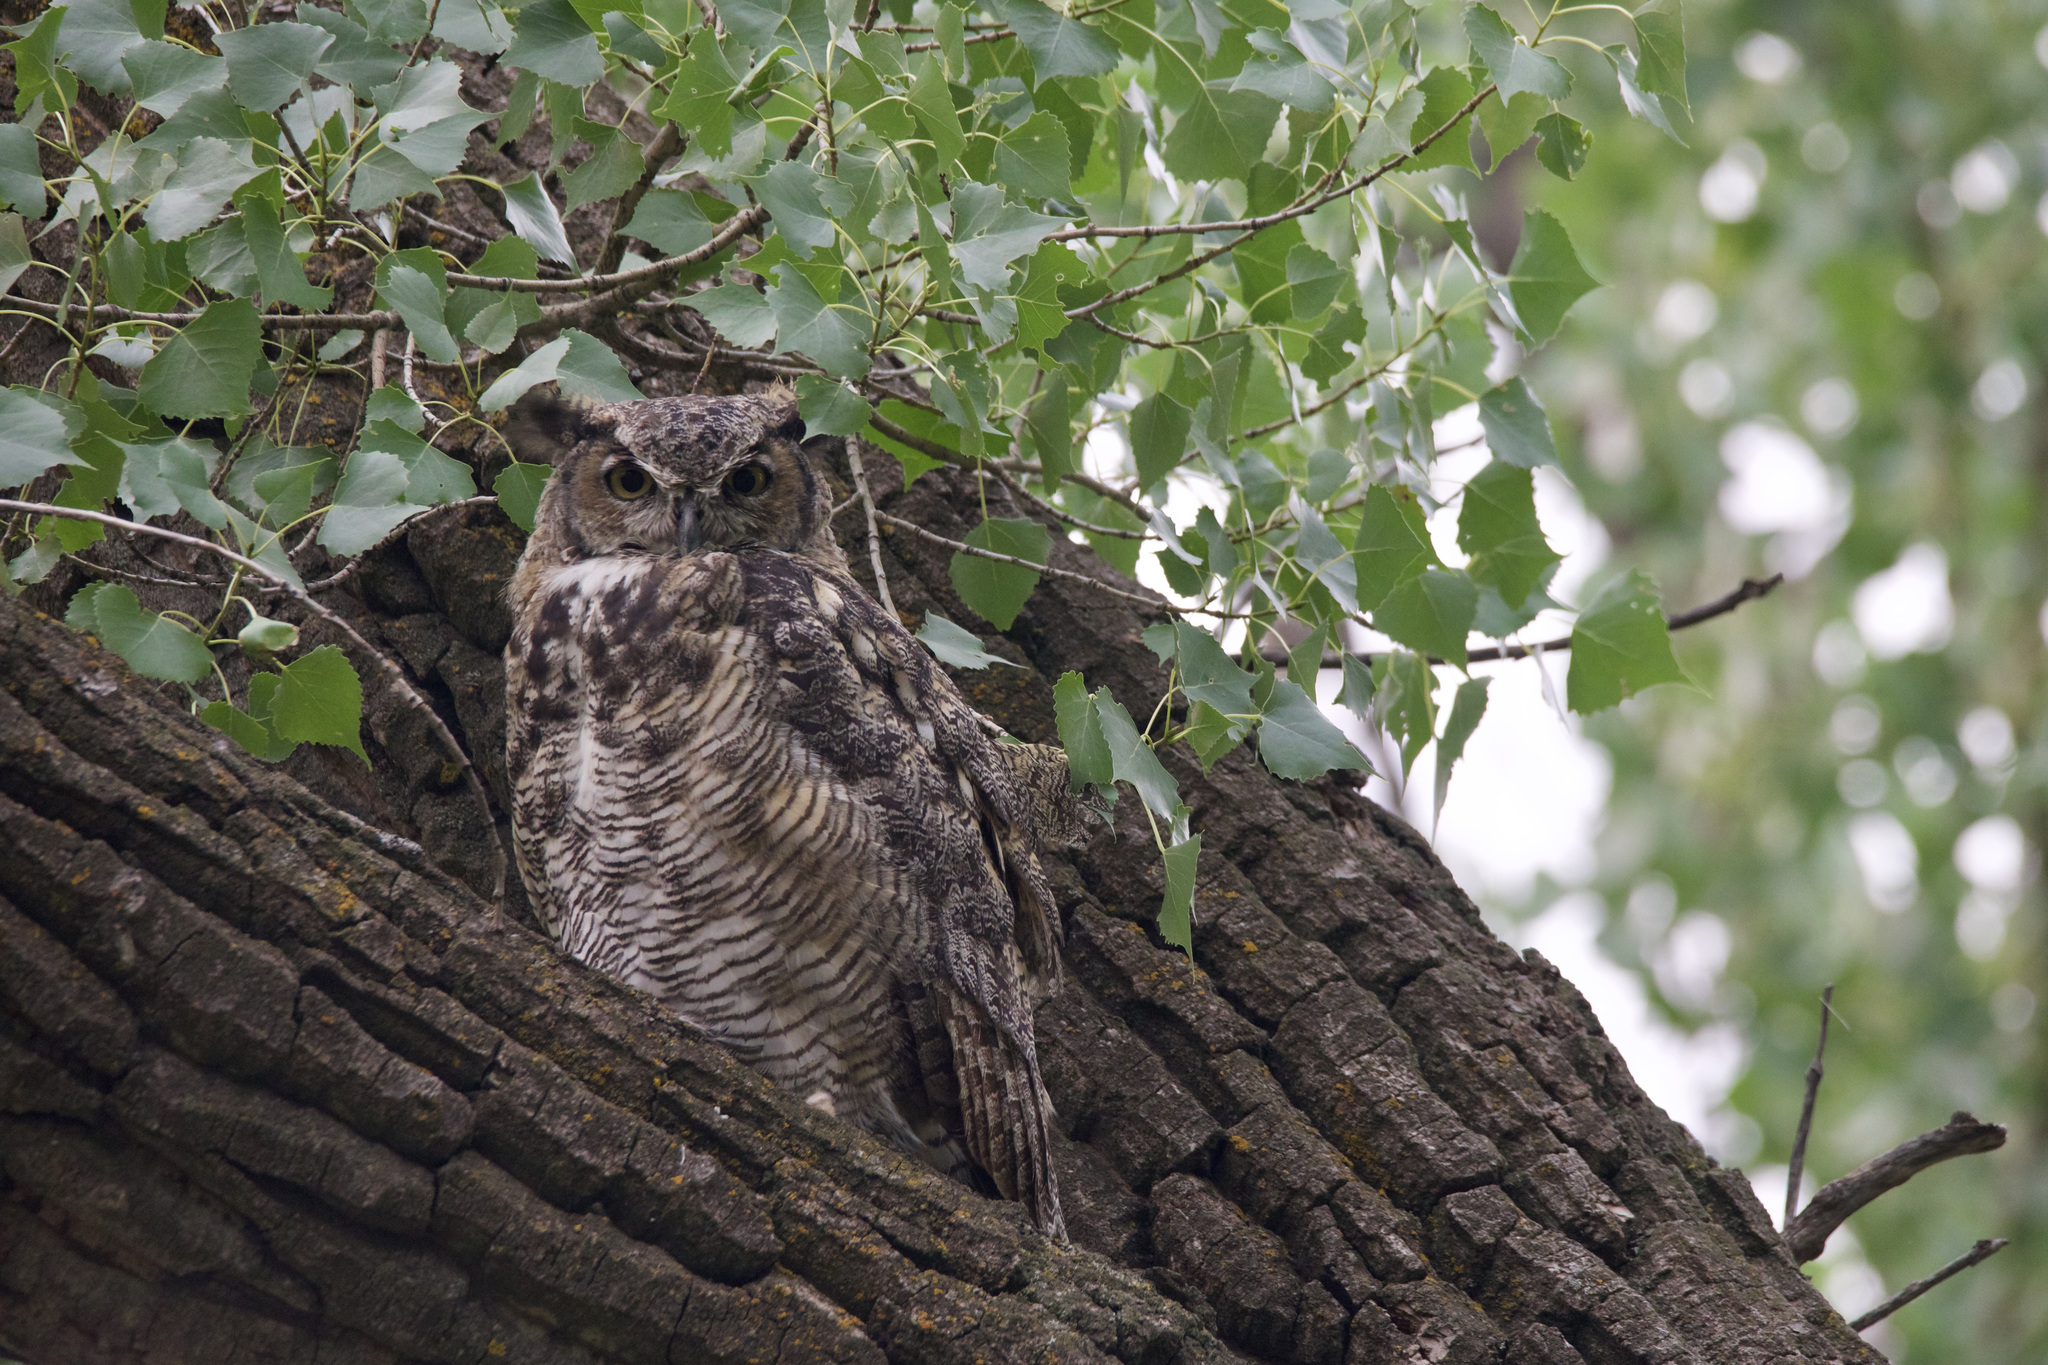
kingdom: Animalia
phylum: Chordata
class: Aves
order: Strigiformes
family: Strigidae
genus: Bubo
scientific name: Bubo virginianus
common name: Great horned owl
